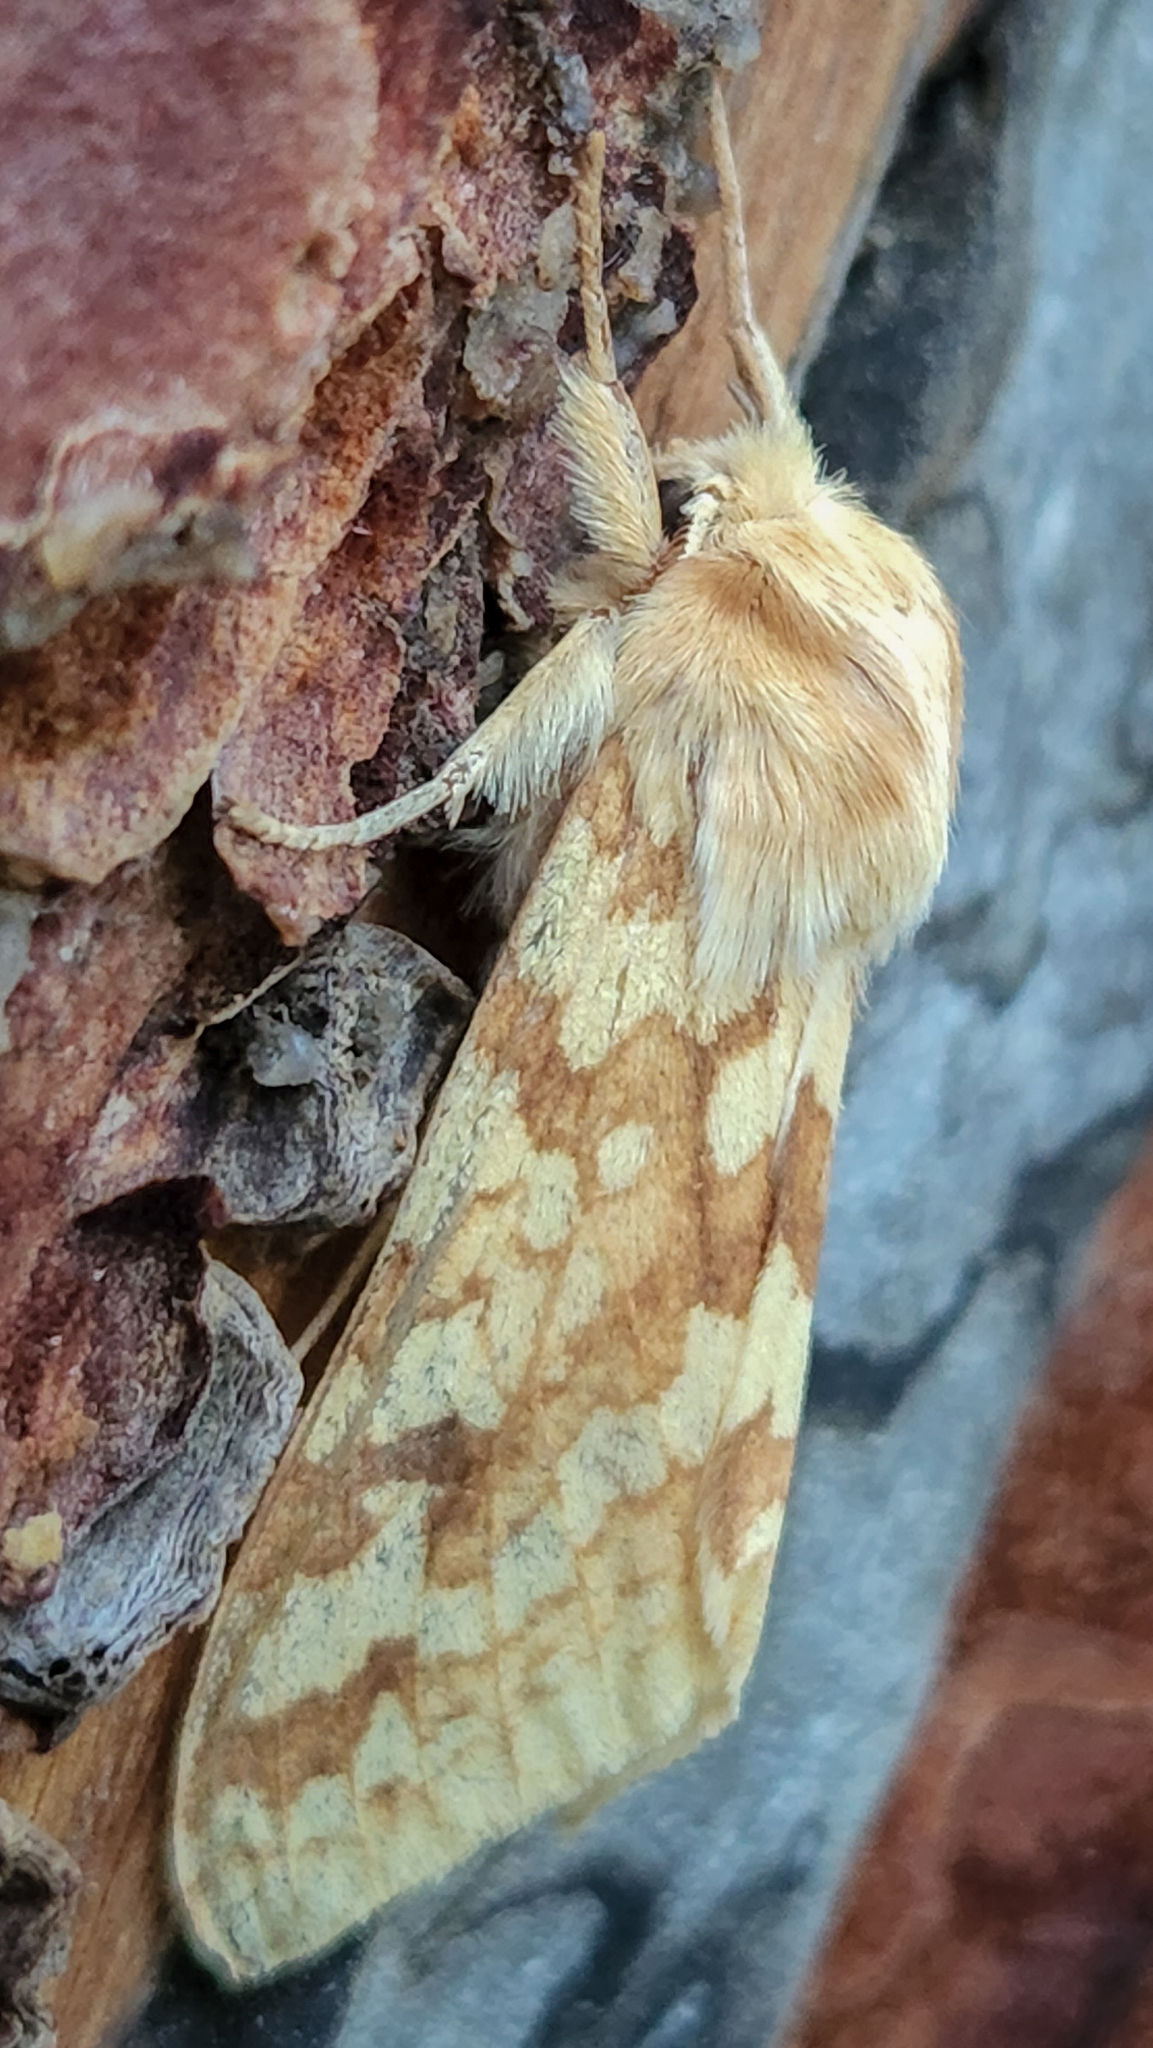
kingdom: Animalia
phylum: Arthropoda
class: Insecta
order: Lepidoptera
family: Erebidae
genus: Lophocampa
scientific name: Lophocampa maculata
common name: Spotted tussock moth
